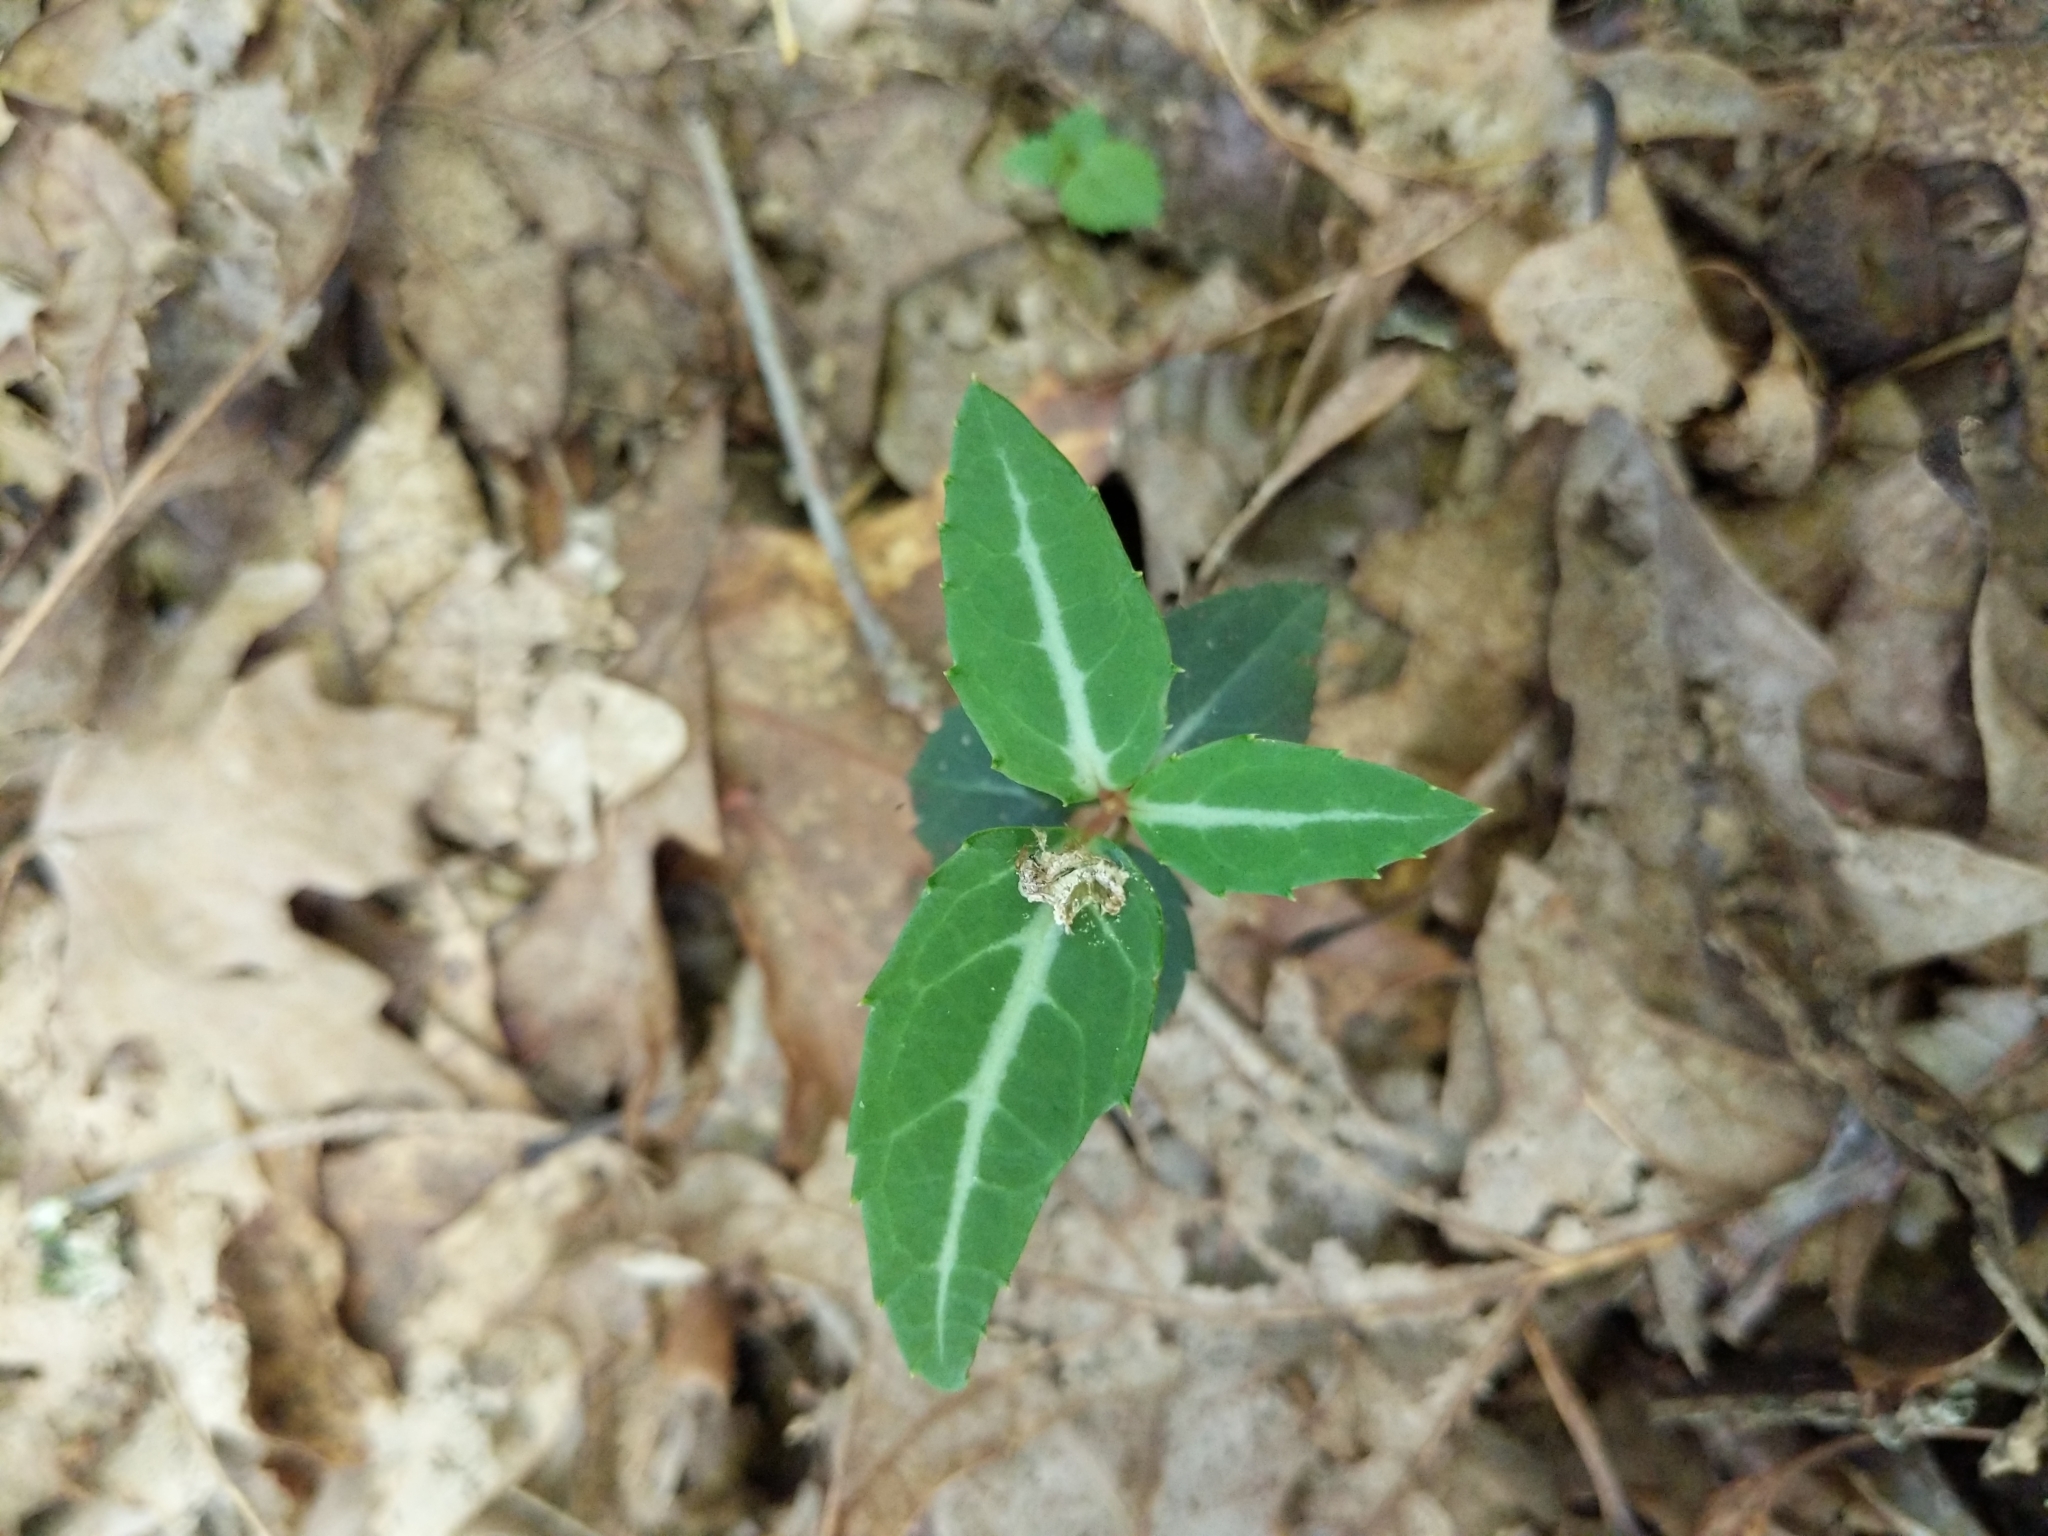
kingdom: Plantae
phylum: Tracheophyta
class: Magnoliopsida
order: Ericales
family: Ericaceae
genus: Chimaphila
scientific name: Chimaphila maculata
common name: Spotted pipsissewa
